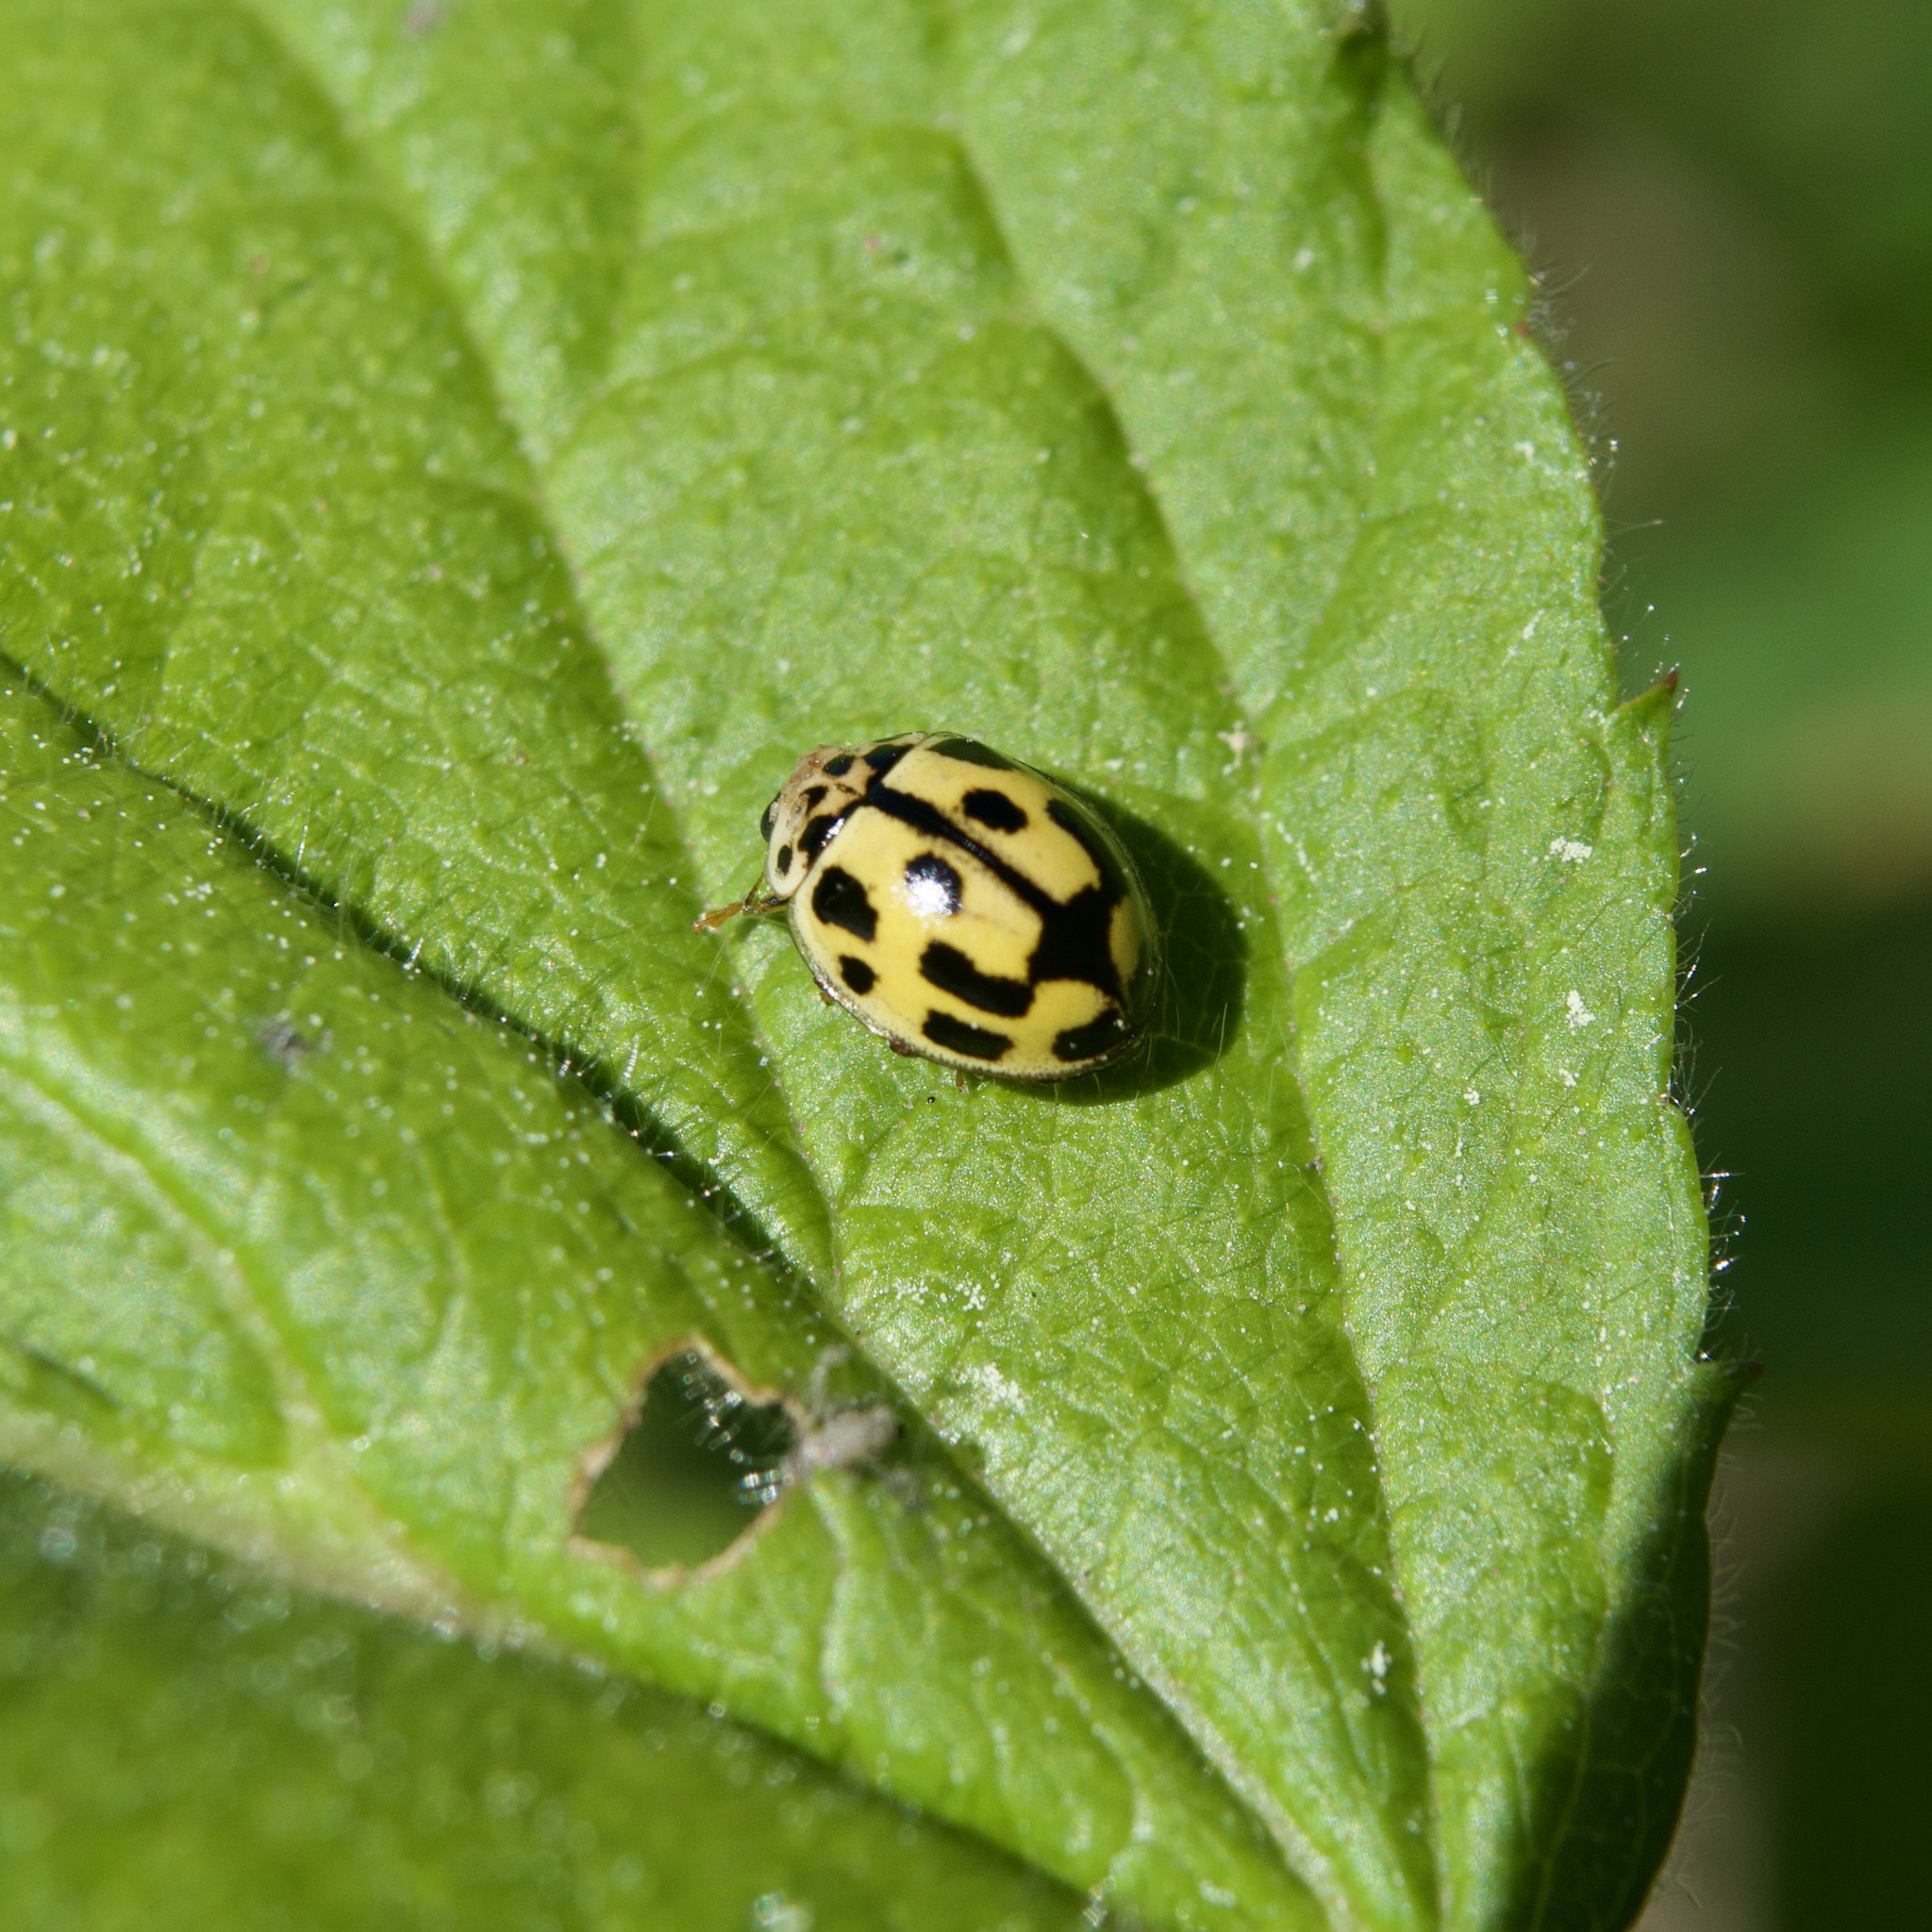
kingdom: Animalia
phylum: Arthropoda
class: Insecta
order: Coleoptera
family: Coccinellidae
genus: Propylaea
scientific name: Propylaea quatuordecimpunctata
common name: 14-spotted ladybird beetle
